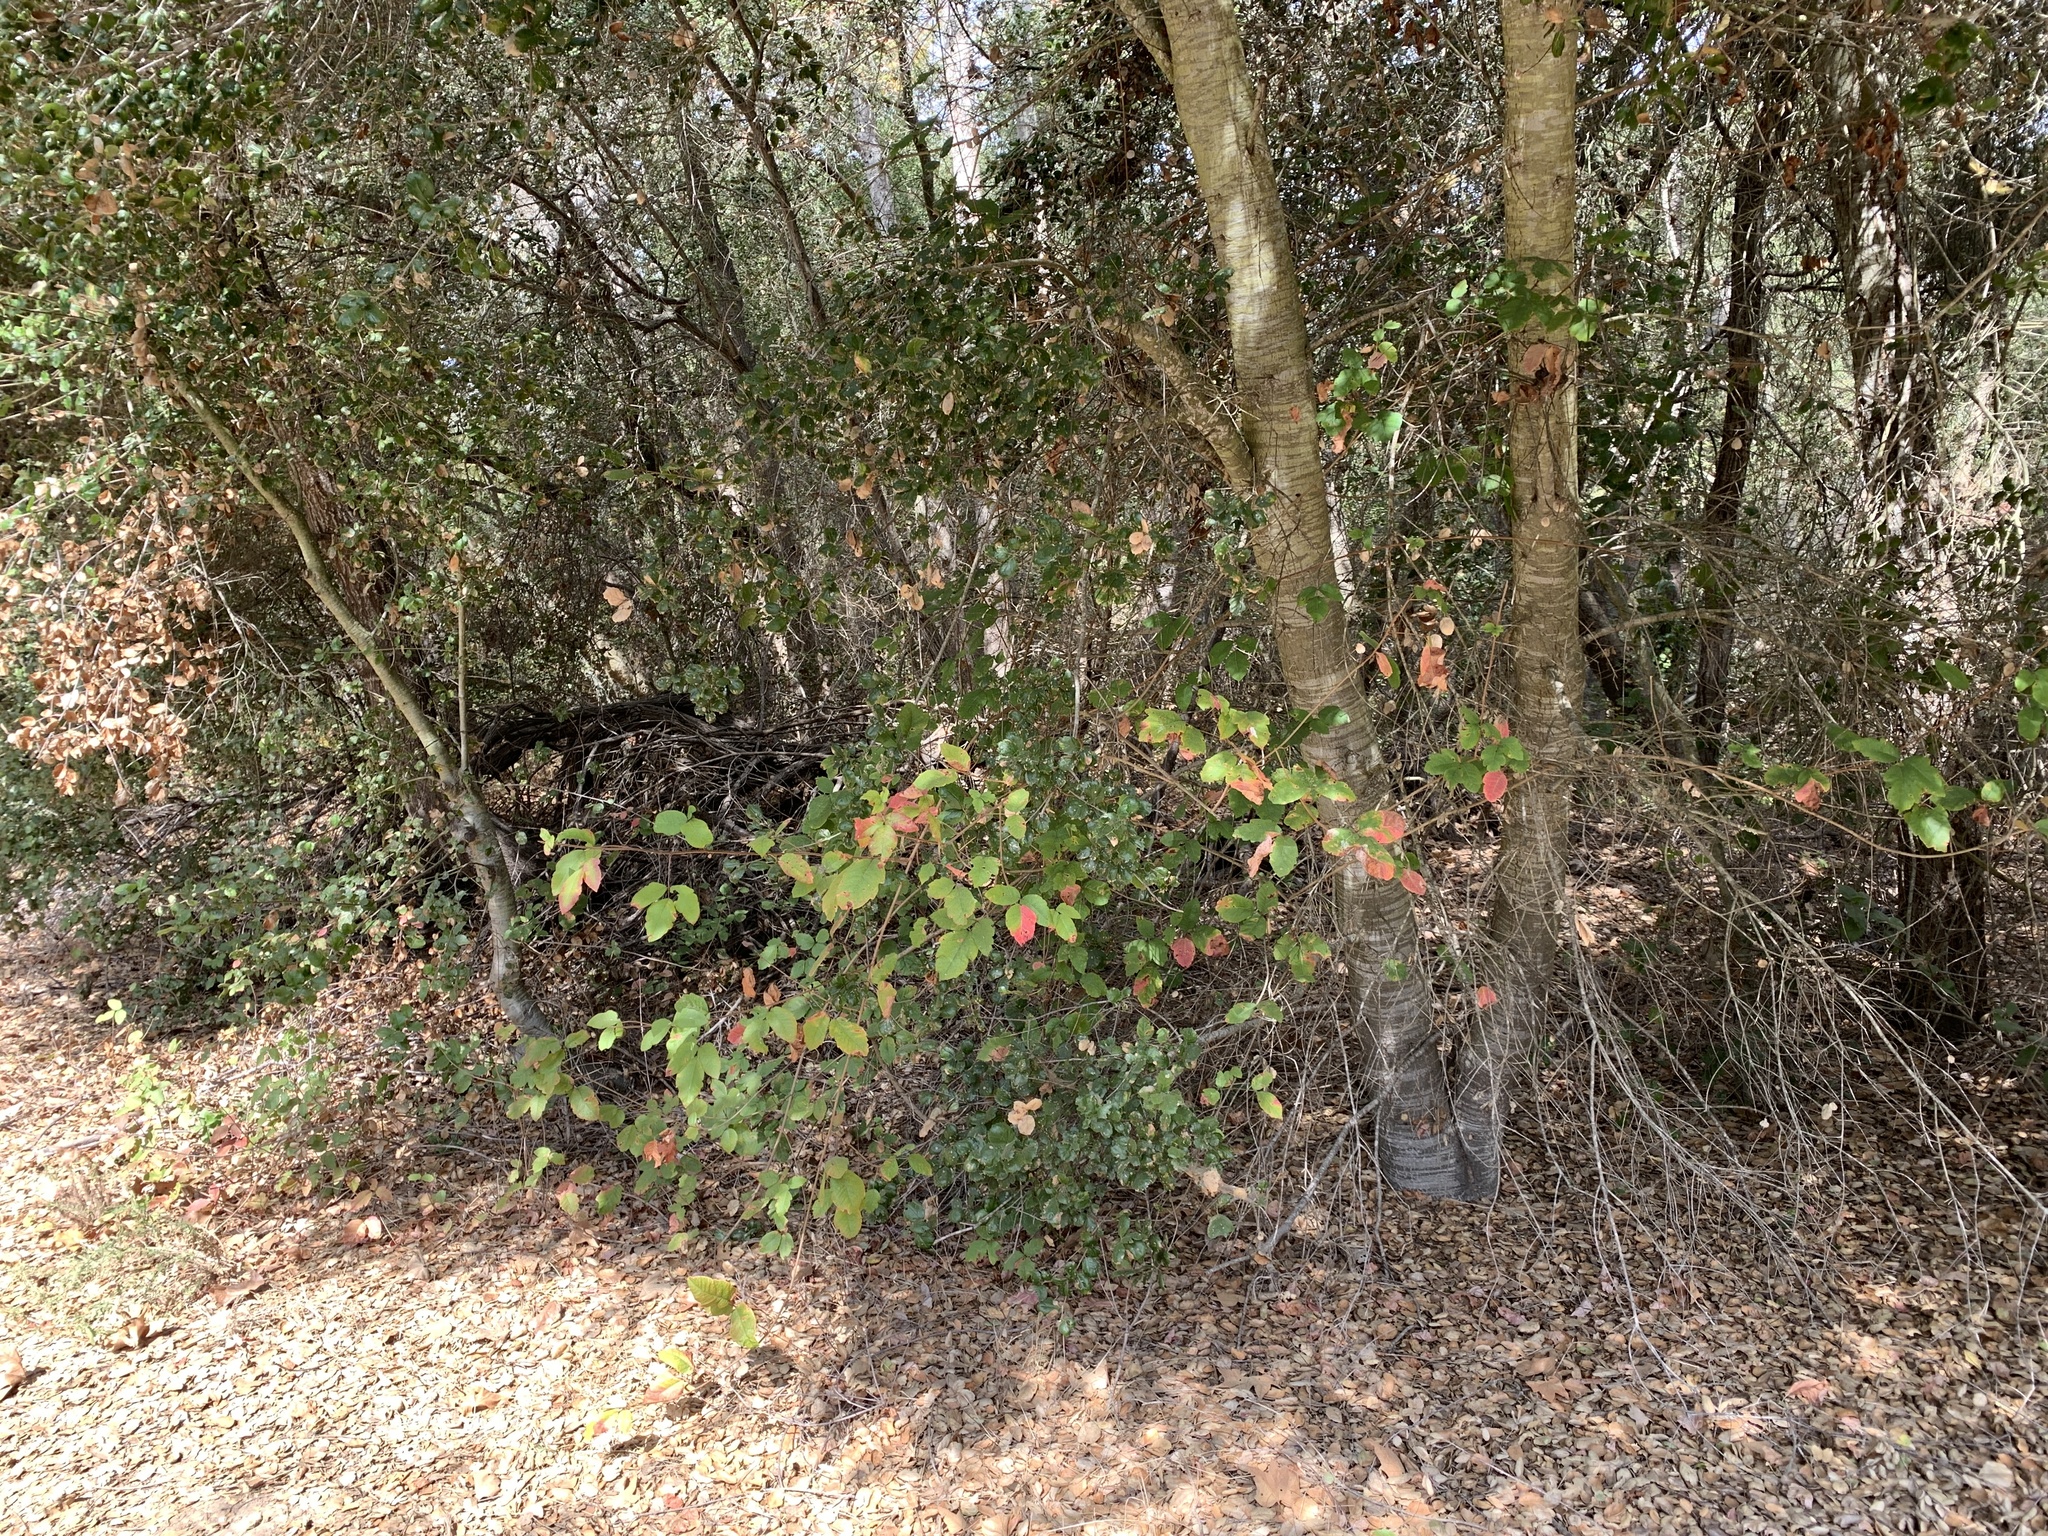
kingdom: Plantae
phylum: Tracheophyta
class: Magnoliopsida
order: Sapindales
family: Anacardiaceae
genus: Toxicodendron
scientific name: Toxicodendron diversilobum
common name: Pacific poison-oak
